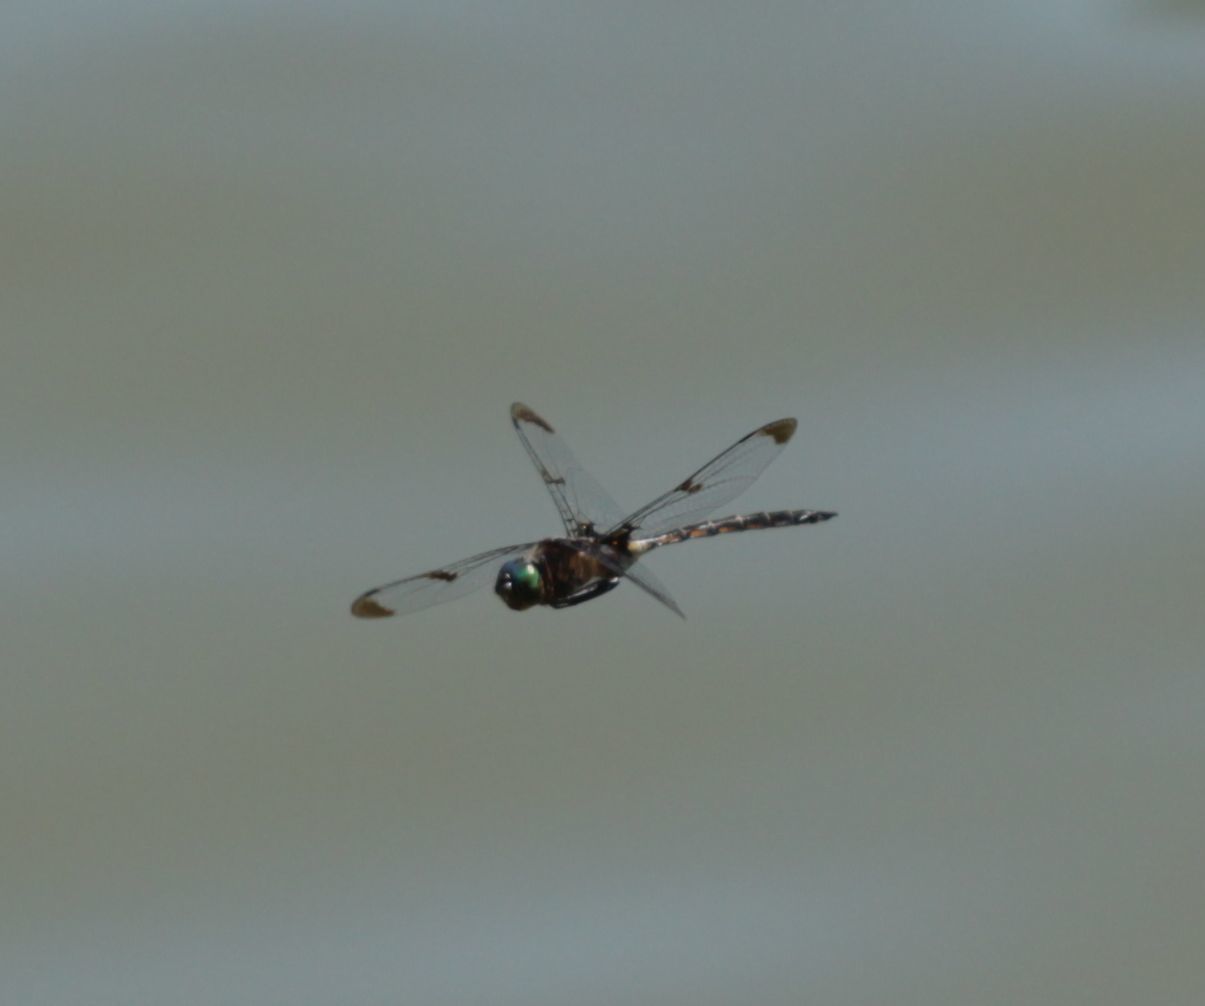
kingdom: Animalia
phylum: Arthropoda
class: Insecta
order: Odonata
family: Corduliidae
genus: Epitheca
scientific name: Epitheca princeps
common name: Prince baskettail
